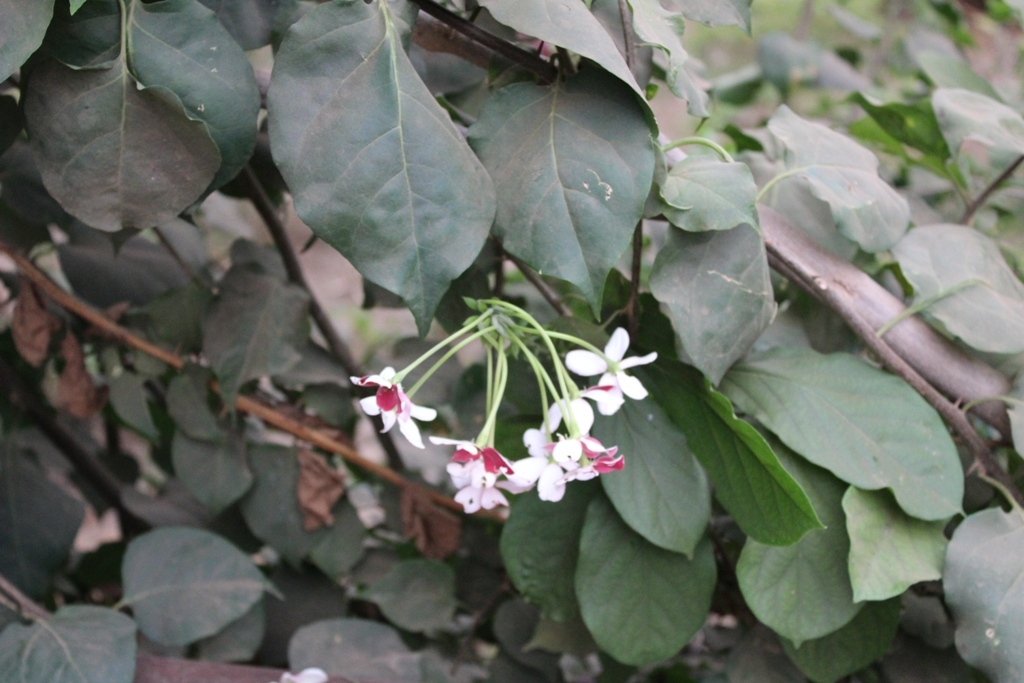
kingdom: Plantae
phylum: Tracheophyta
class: Magnoliopsida
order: Myrtales
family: Combretaceae
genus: Combretum
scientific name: Combretum indicum
